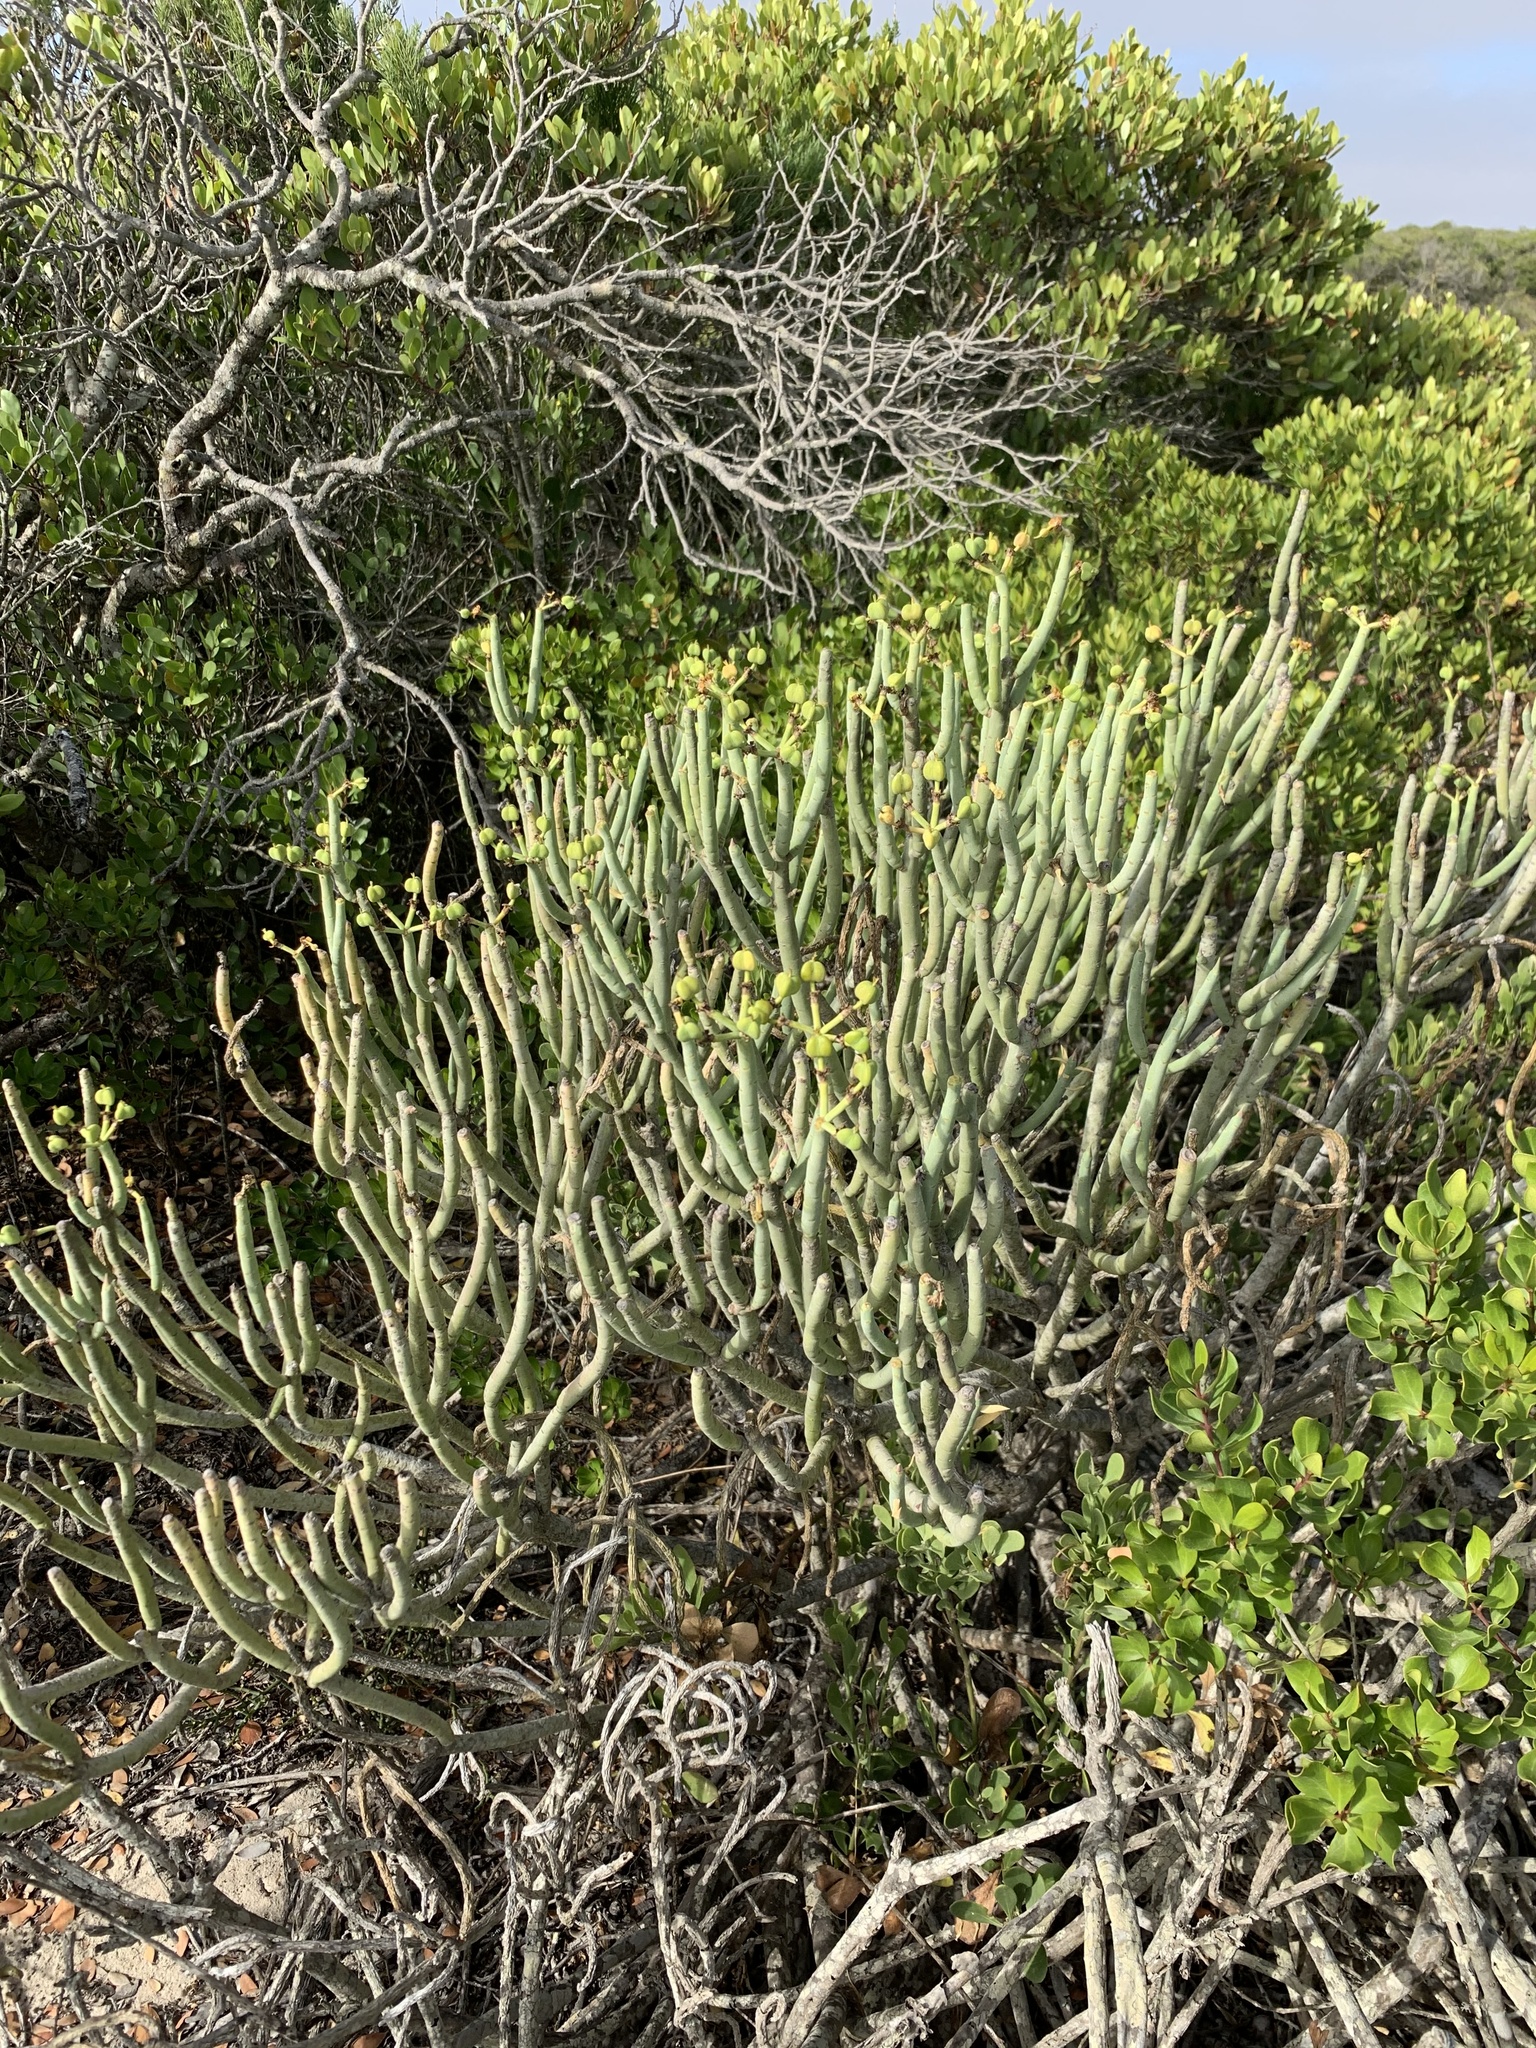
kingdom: Plantae
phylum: Tracheophyta
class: Magnoliopsida
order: Malpighiales
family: Euphorbiaceae
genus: Euphorbia
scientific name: Euphorbia mauritanica
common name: Jackal's-food
